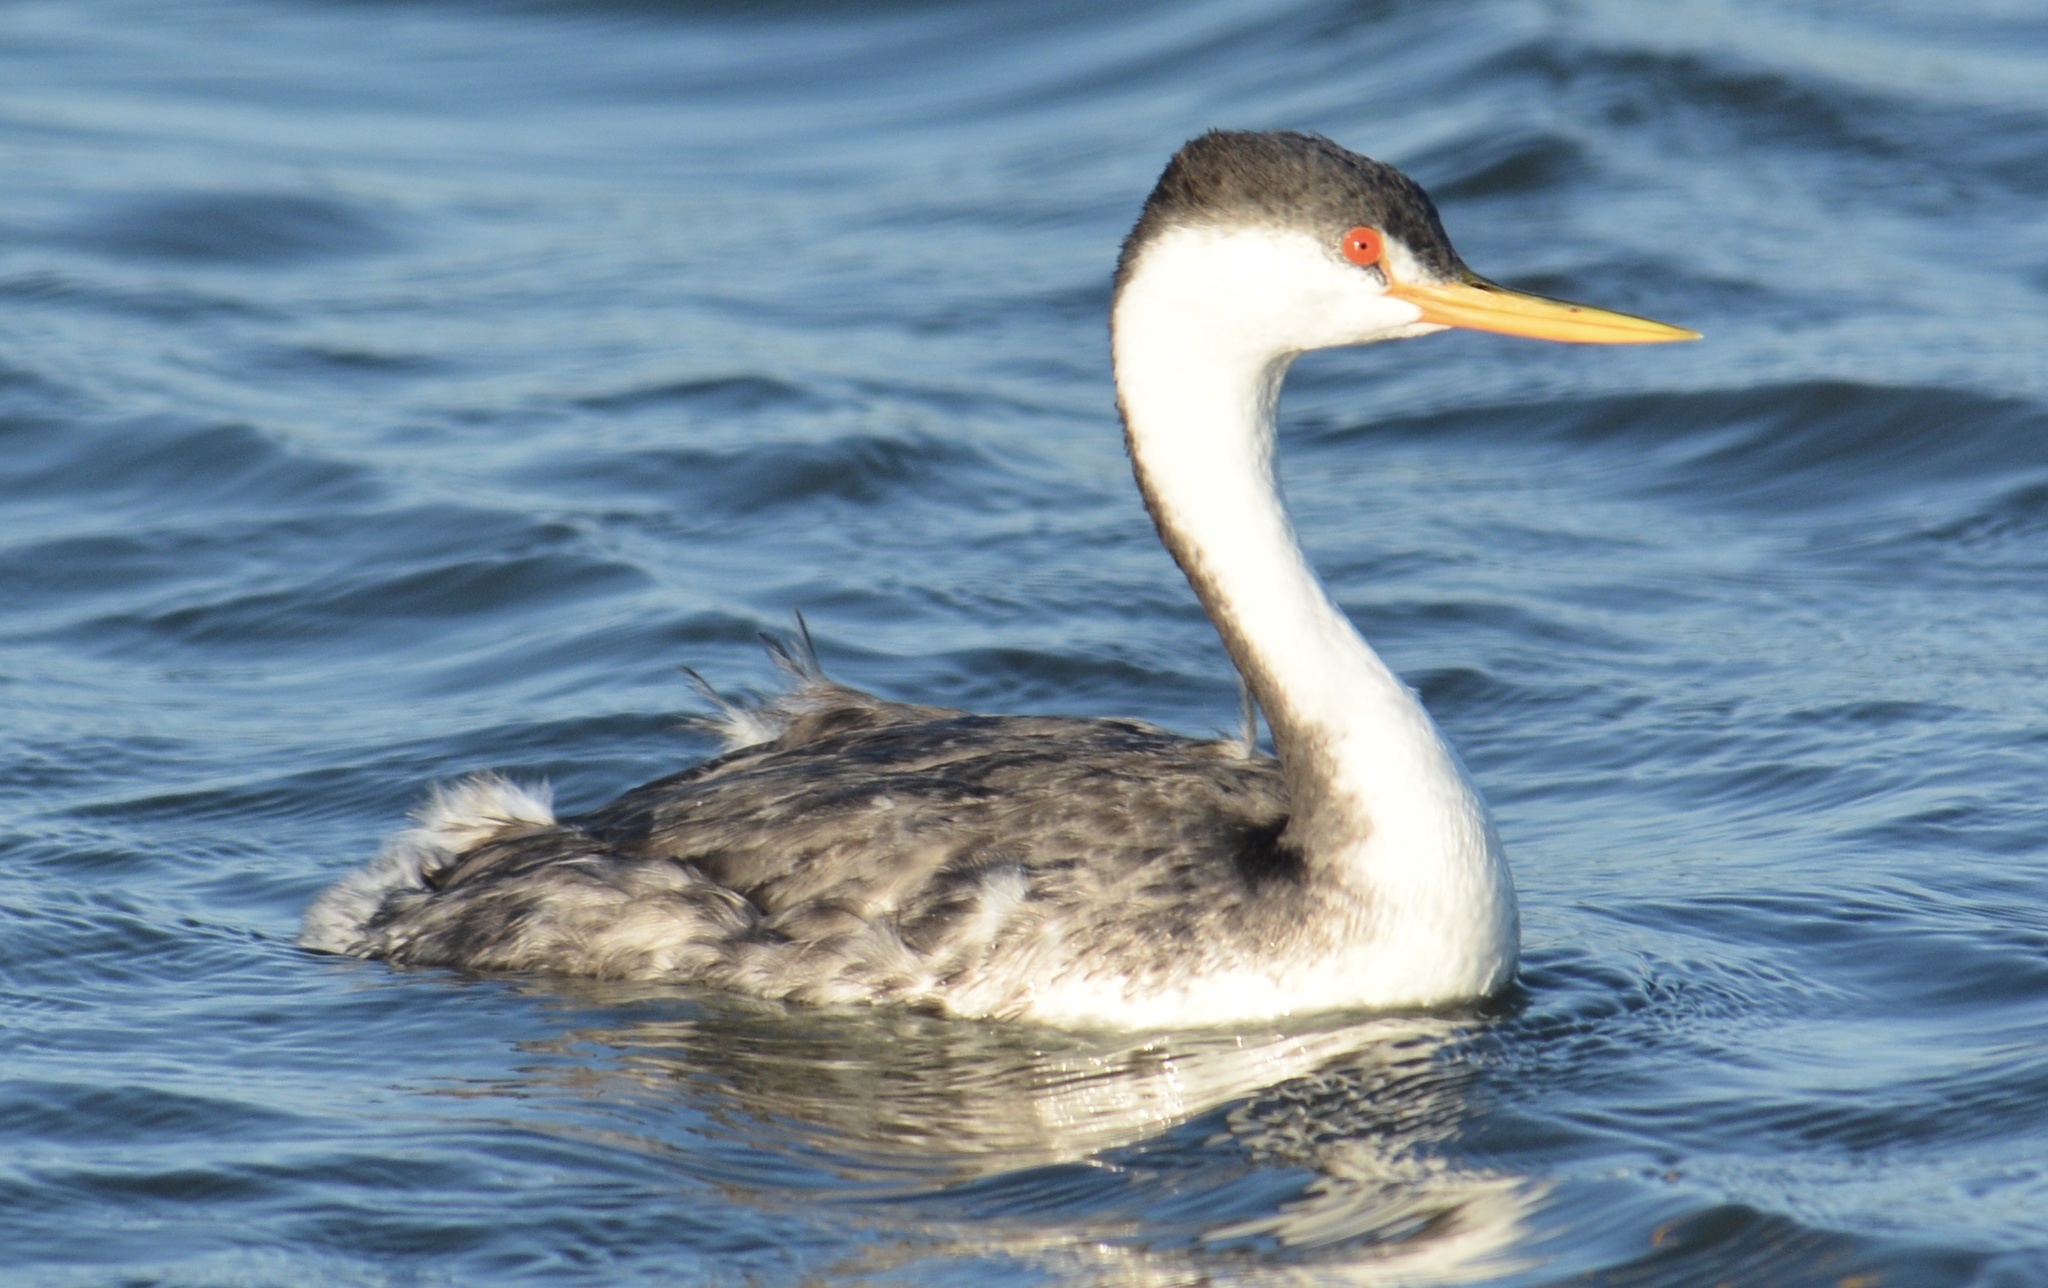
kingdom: Animalia
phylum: Chordata
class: Aves
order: Podicipediformes
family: Podicipedidae
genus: Aechmophorus
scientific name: Aechmophorus clarkii
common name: Clark's grebe
